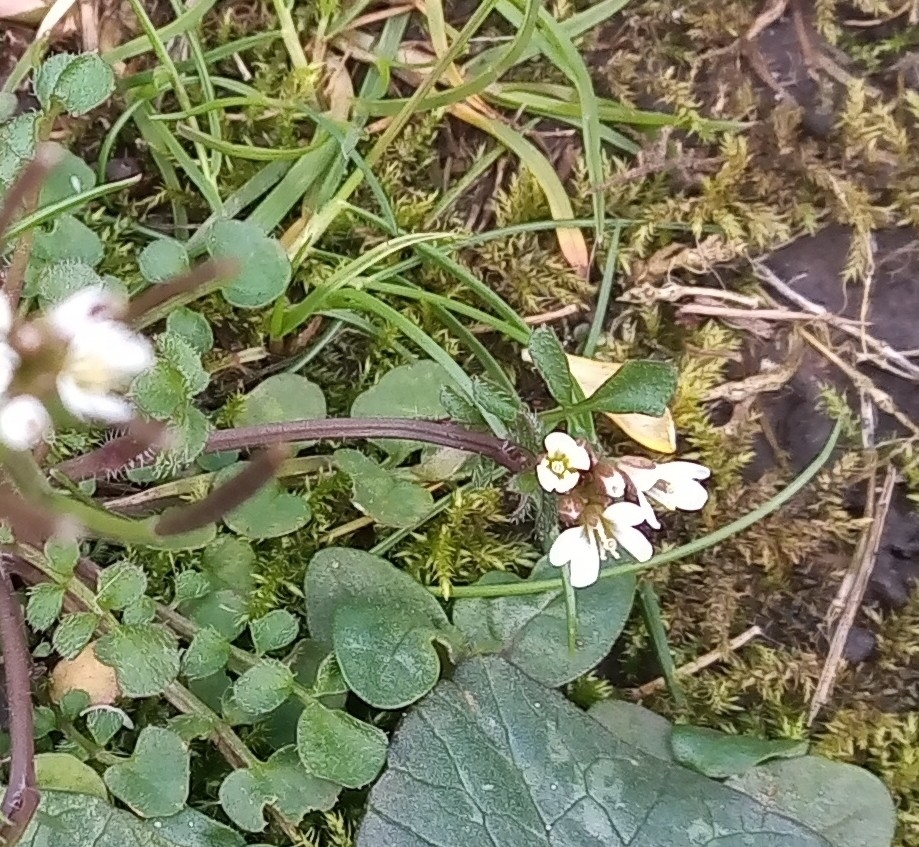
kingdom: Plantae
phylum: Tracheophyta
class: Magnoliopsida
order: Brassicales
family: Brassicaceae
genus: Cardamine
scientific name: Cardamine hirsuta
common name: Hairy bittercress
